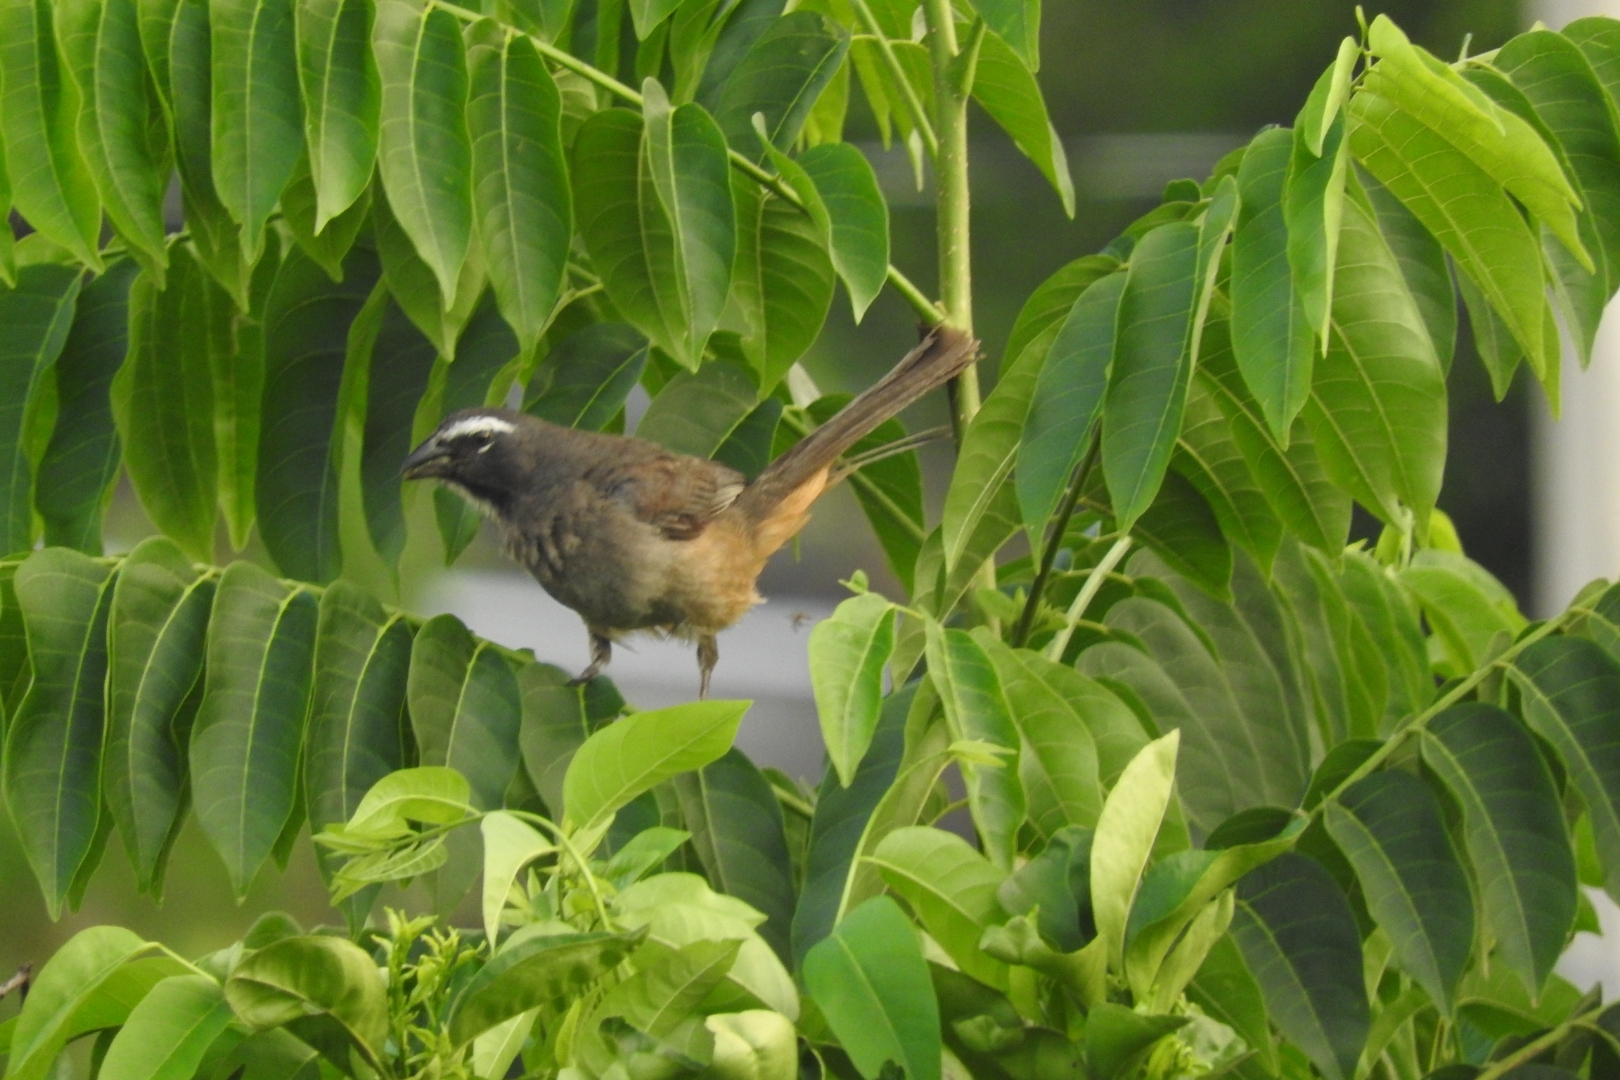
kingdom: Animalia
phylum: Chordata
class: Aves
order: Passeriformes
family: Thraupidae
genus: Saltator
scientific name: Saltator grandis
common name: Cinnamon-bellied saltator
